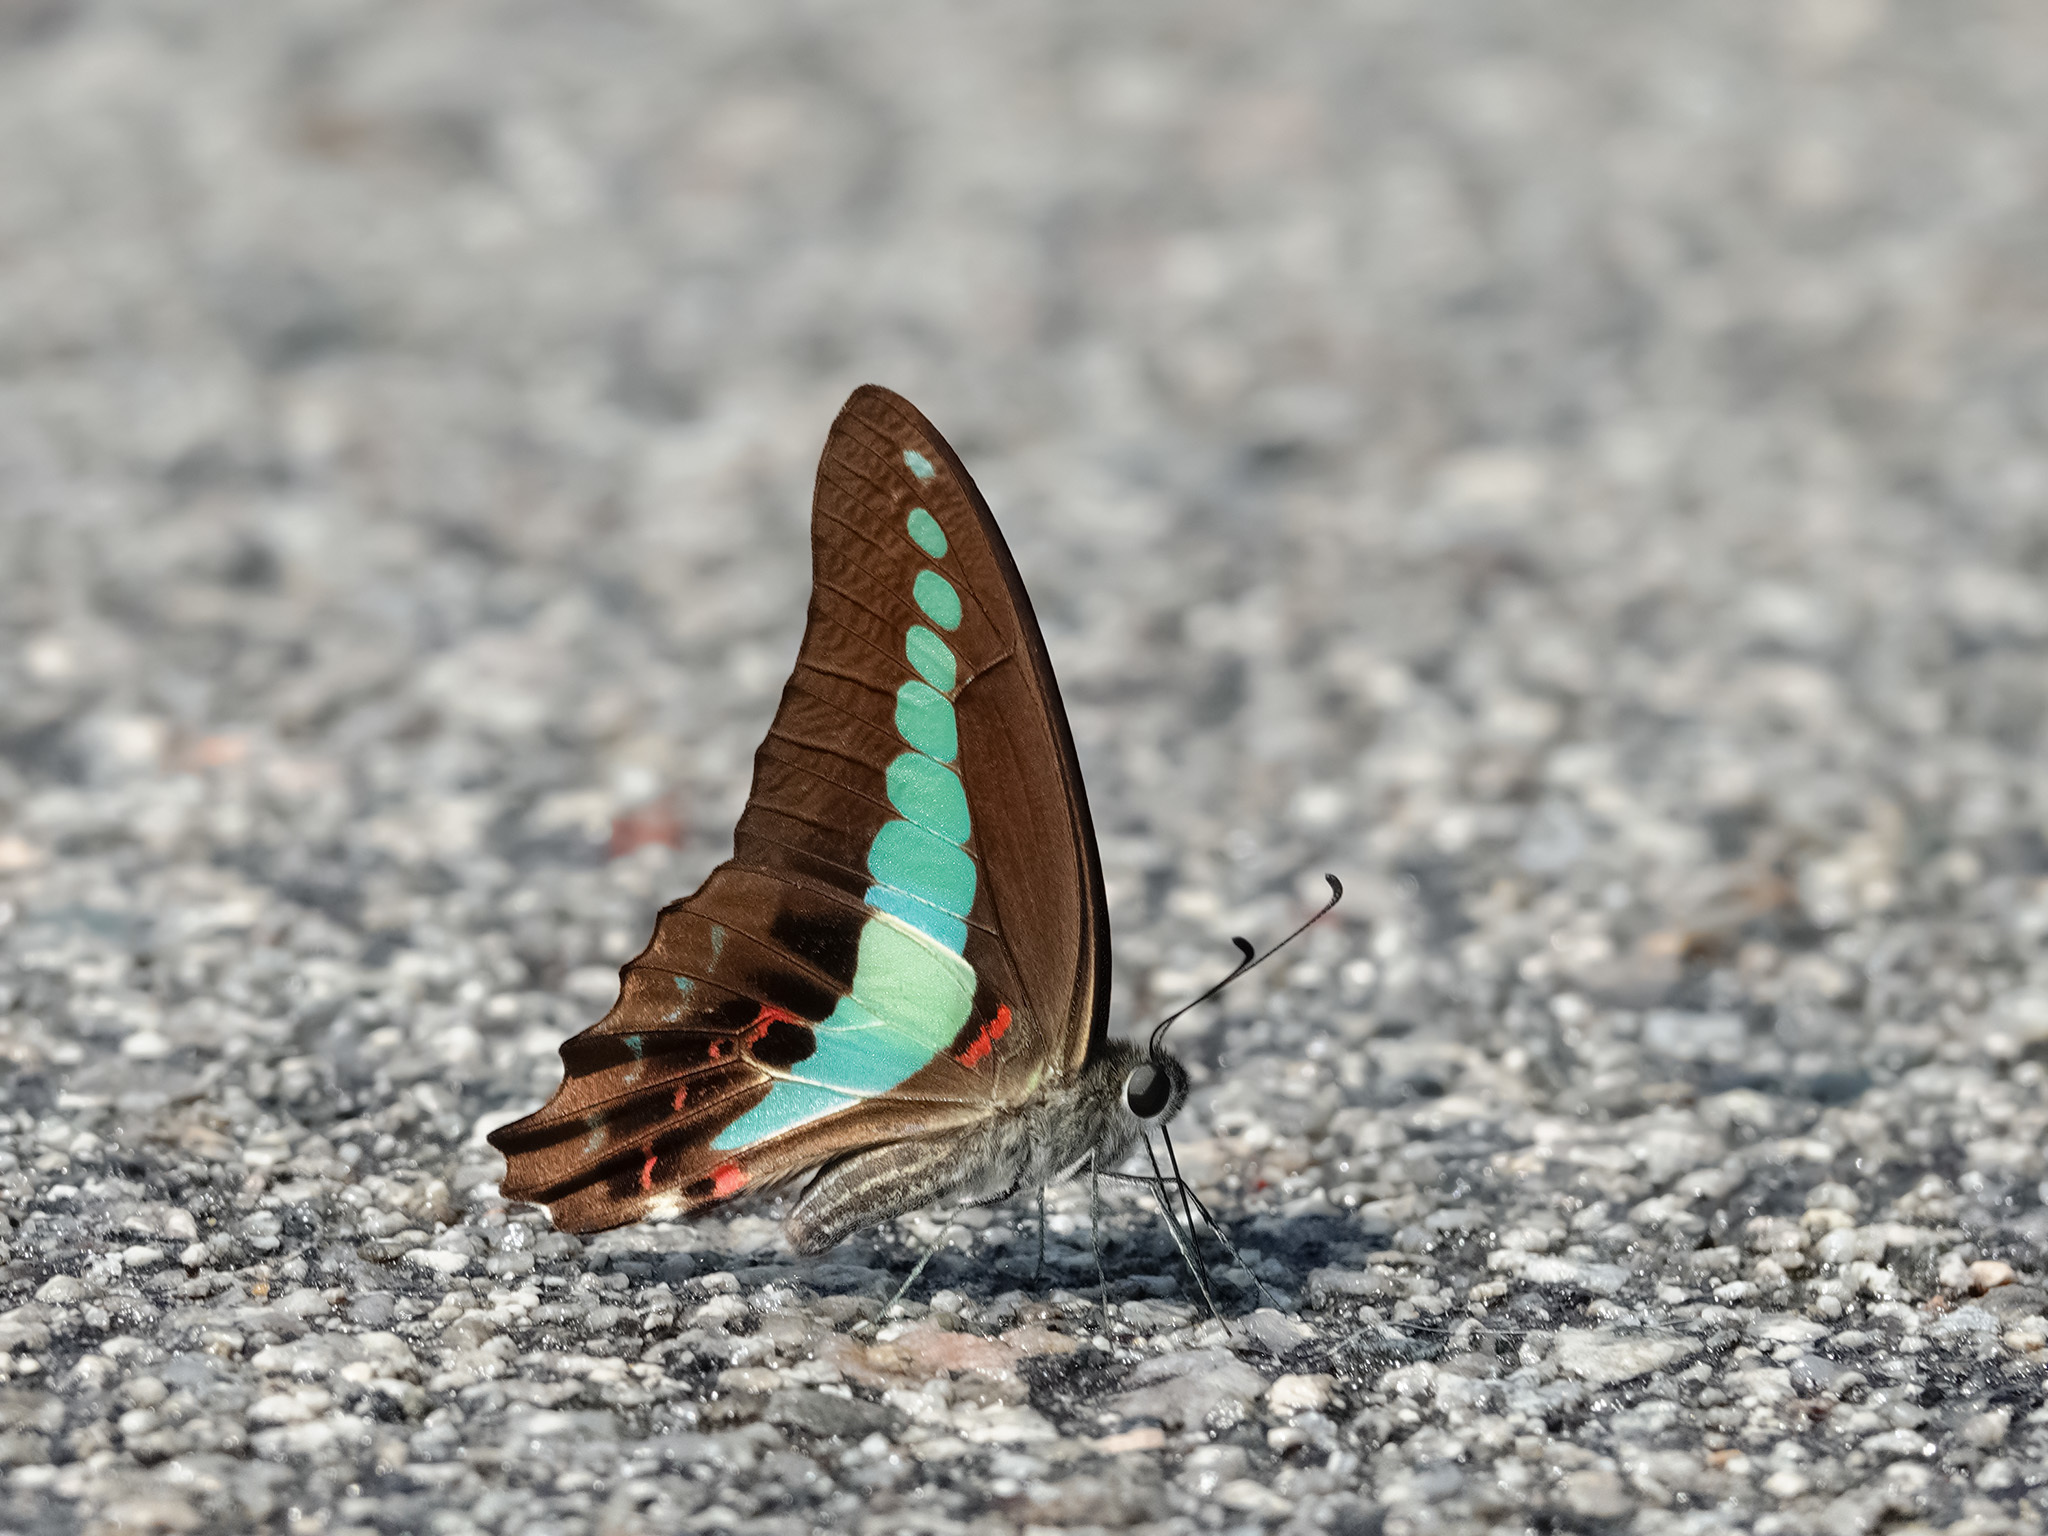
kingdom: Fungi
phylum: Ascomycota
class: Sordariomycetes
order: Microascales
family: Microascaceae
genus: Graphium
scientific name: Graphium sarpedon
